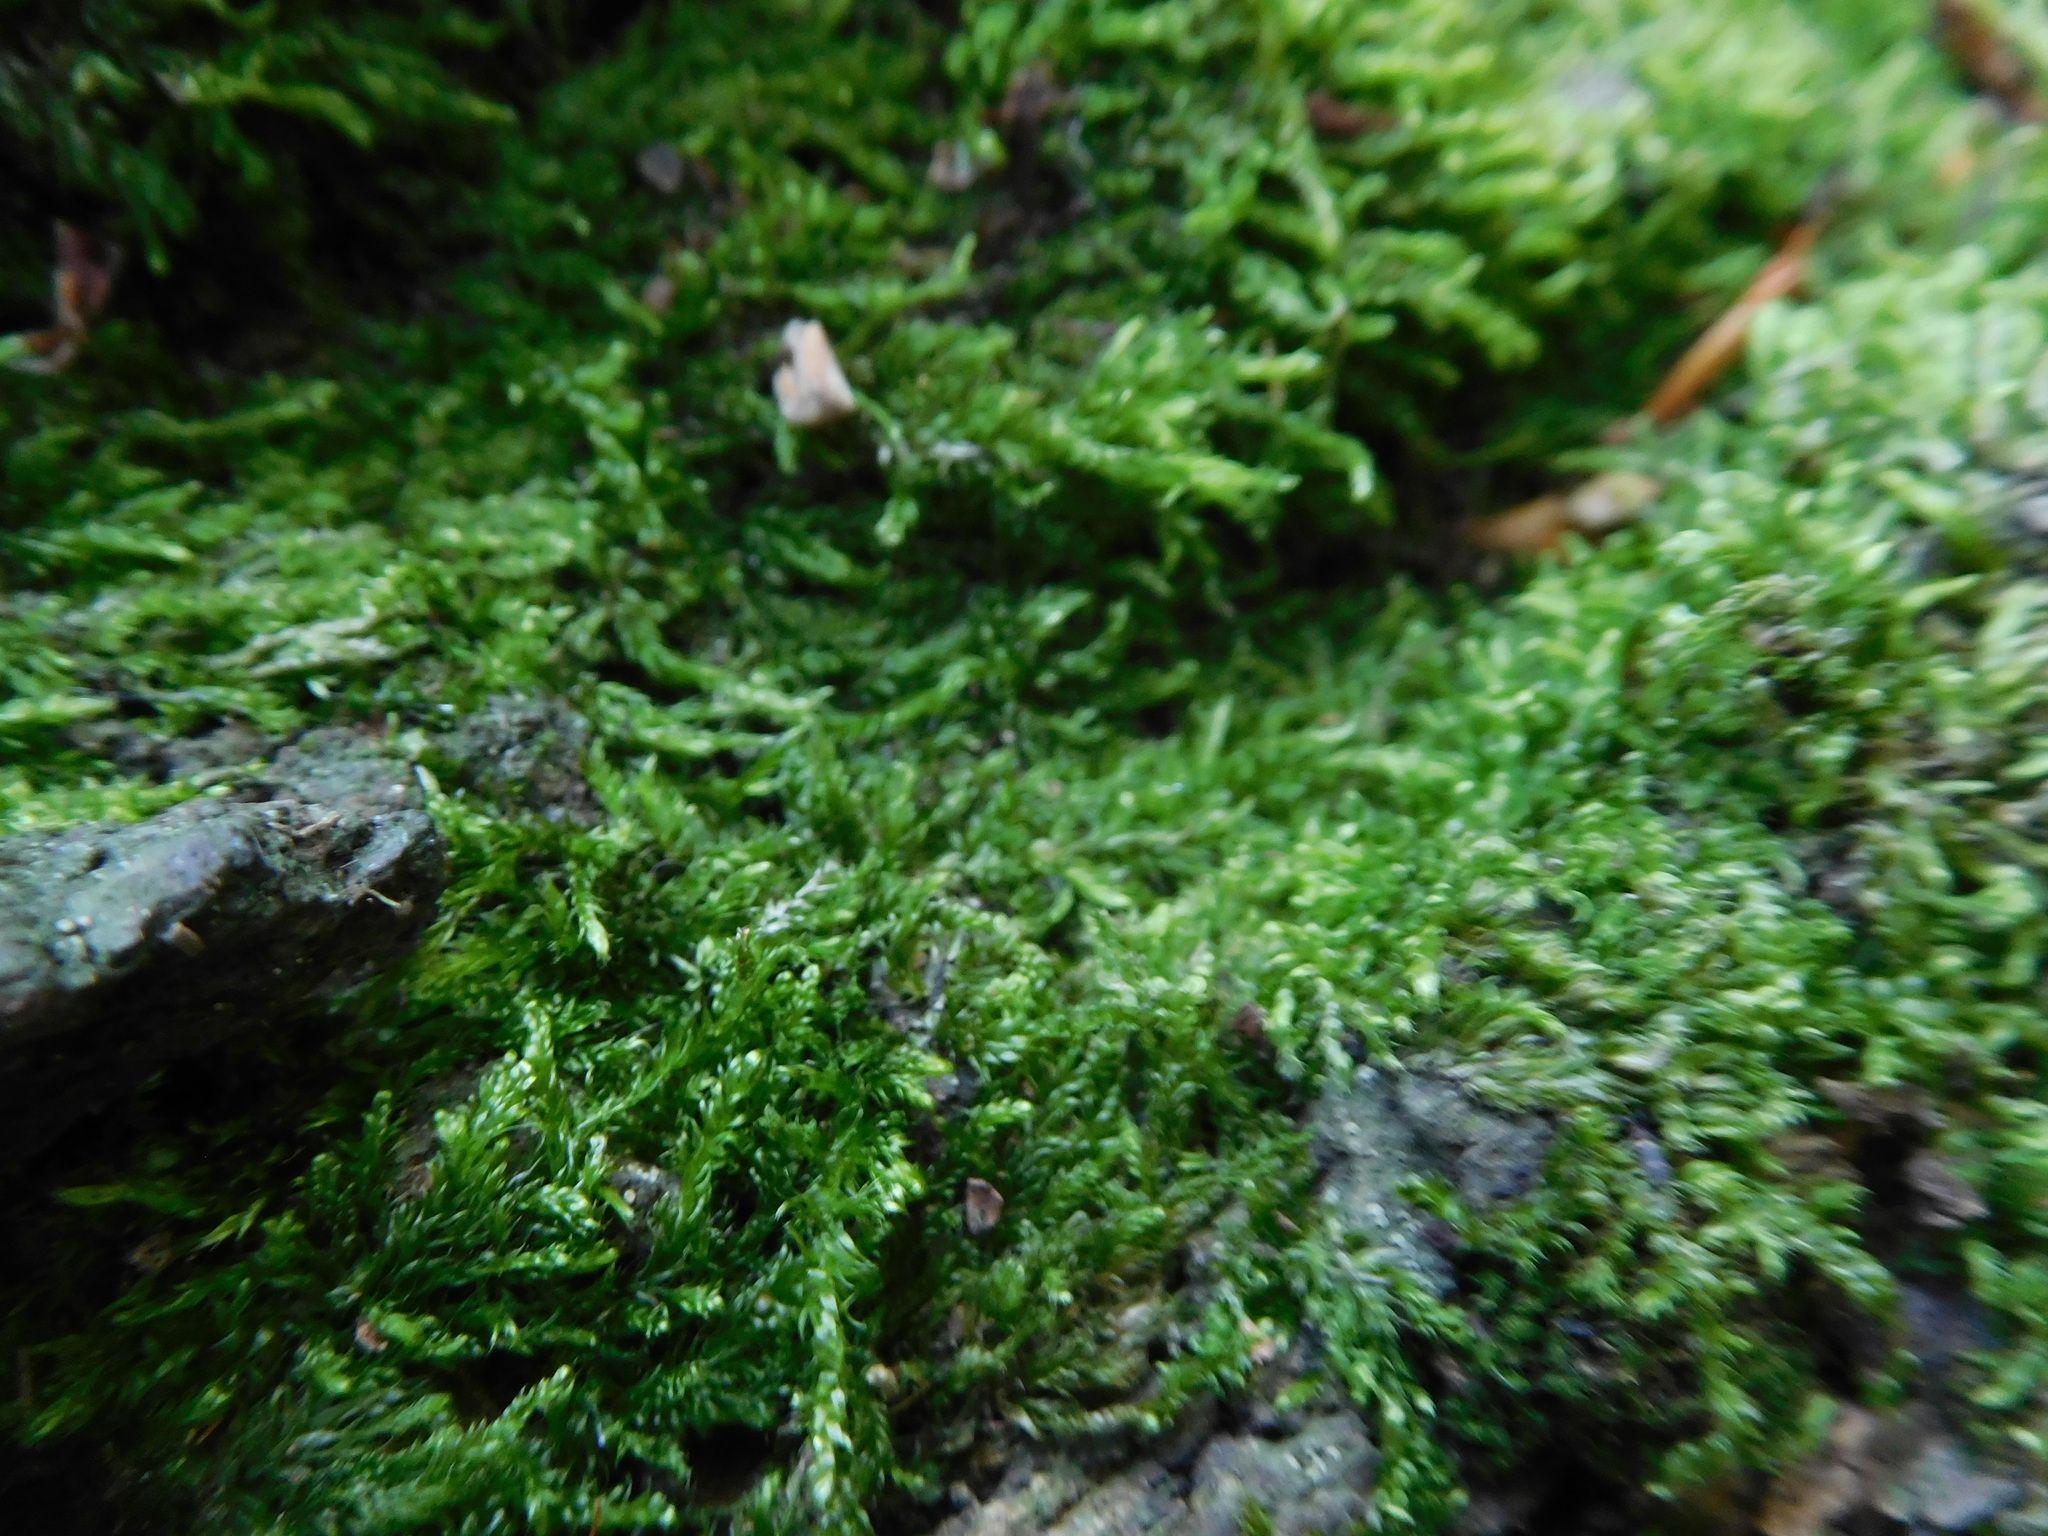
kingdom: Plantae
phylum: Bryophyta
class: Bryopsida
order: Hypnales
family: Hypnaceae
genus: Hypnum
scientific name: Hypnum resupinatum
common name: Supine plait-moss
